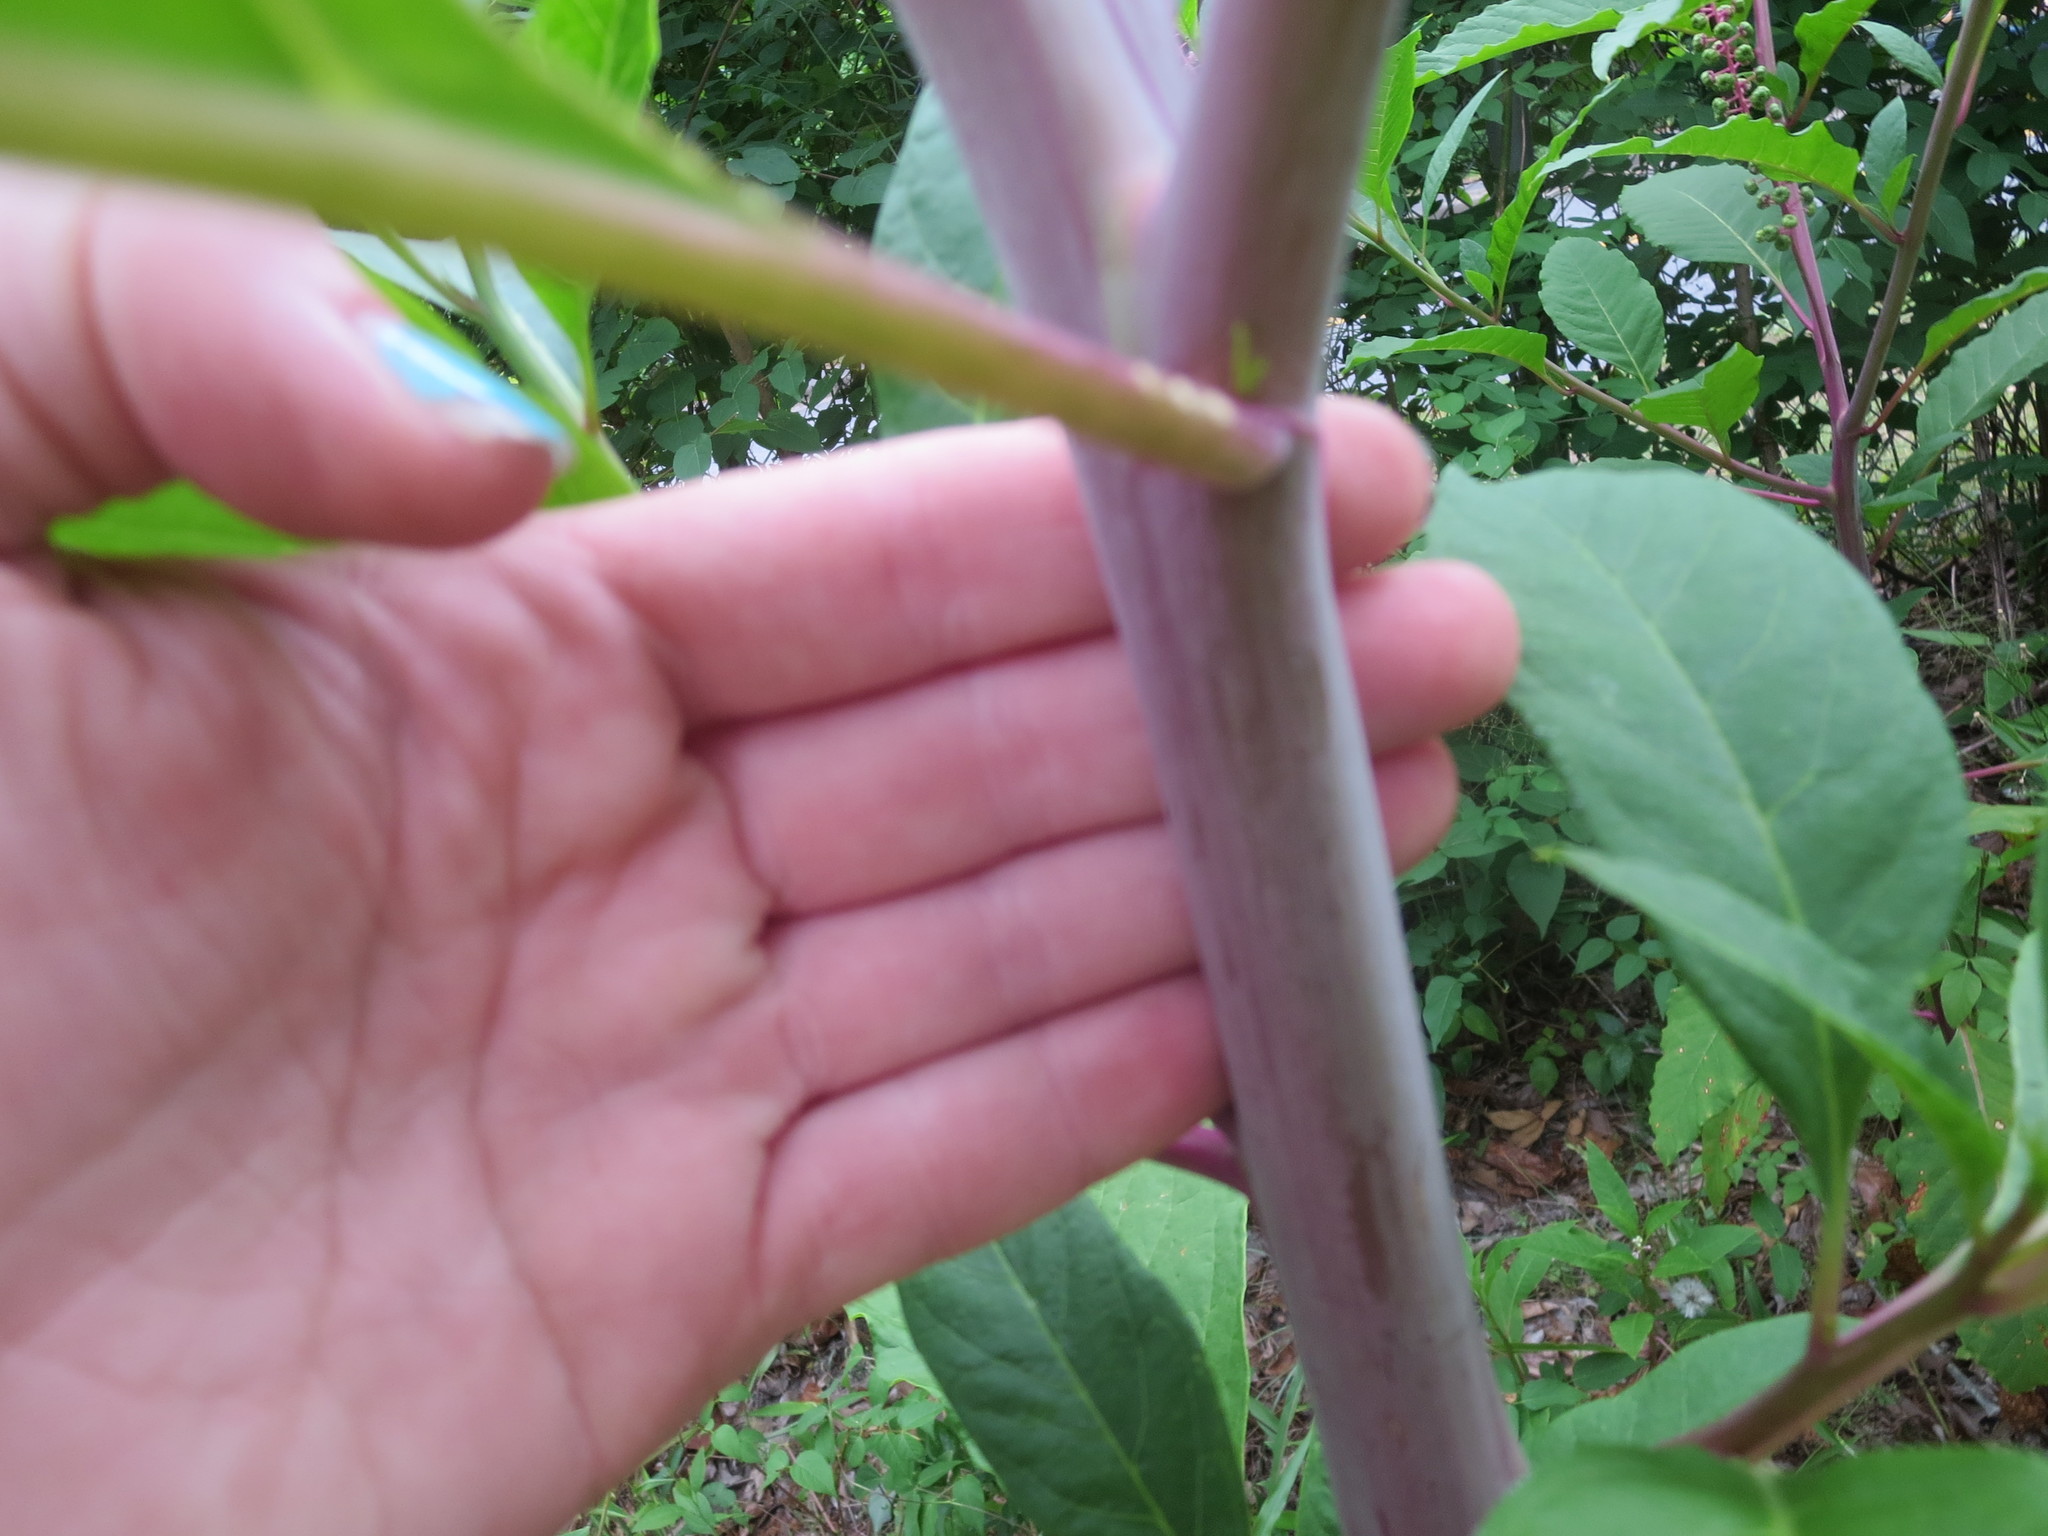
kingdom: Plantae
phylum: Tracheophyta
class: Magnoliopsida
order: Caryophyllales
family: Phytolaccaceae
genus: Phytolacca
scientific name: Phytolacca americana
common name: American pokeweed
